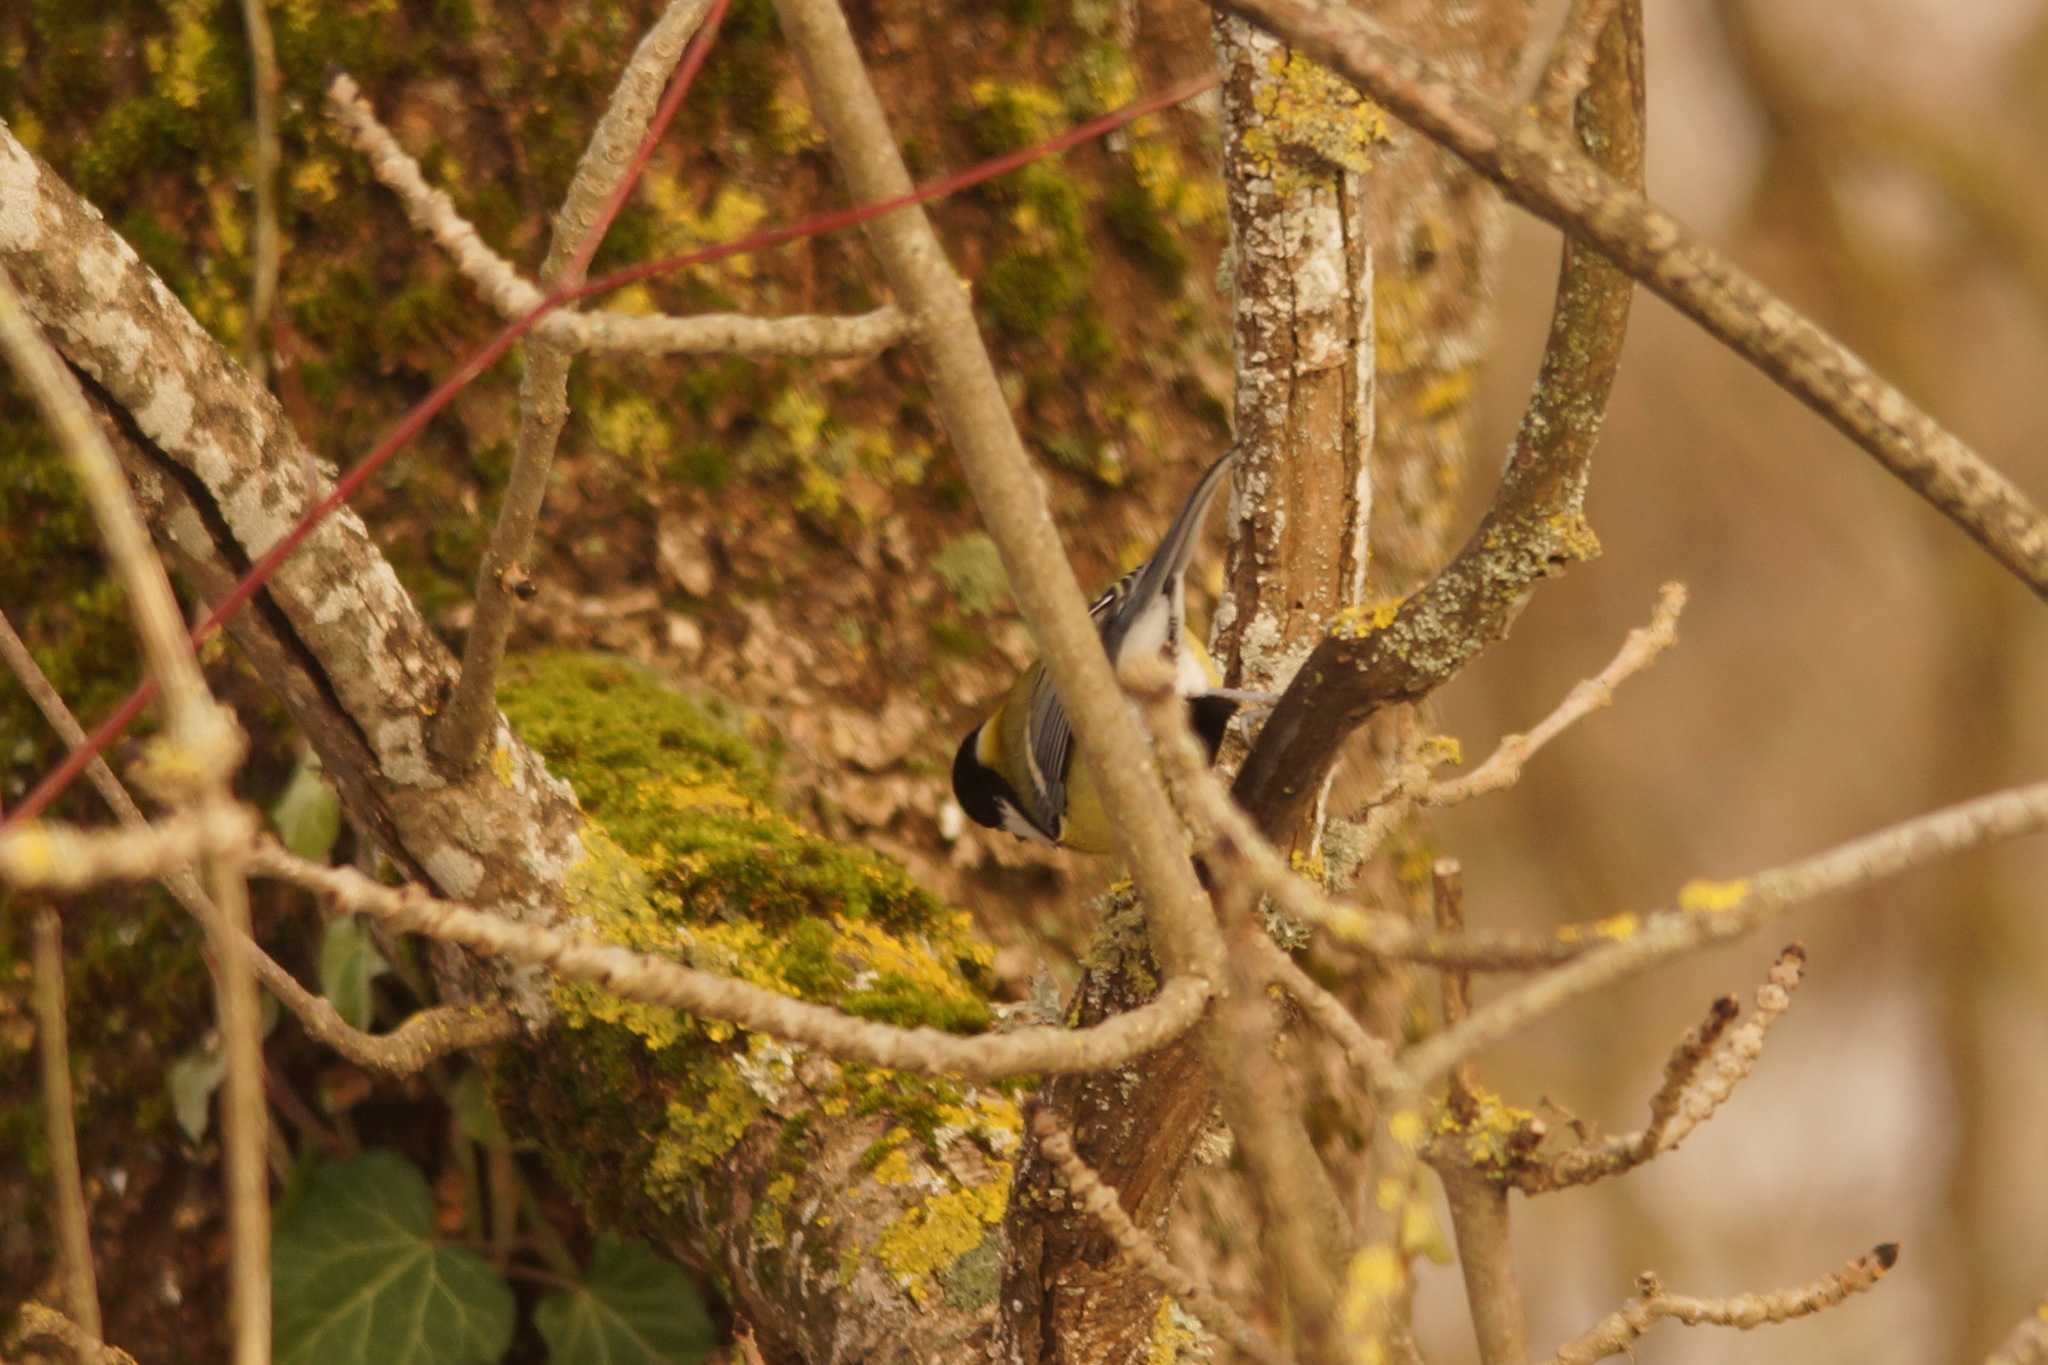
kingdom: Animalia
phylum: Chordata
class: Aves
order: Passeriformes
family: Paridae
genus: Parus
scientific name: Parus major
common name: Great tit
